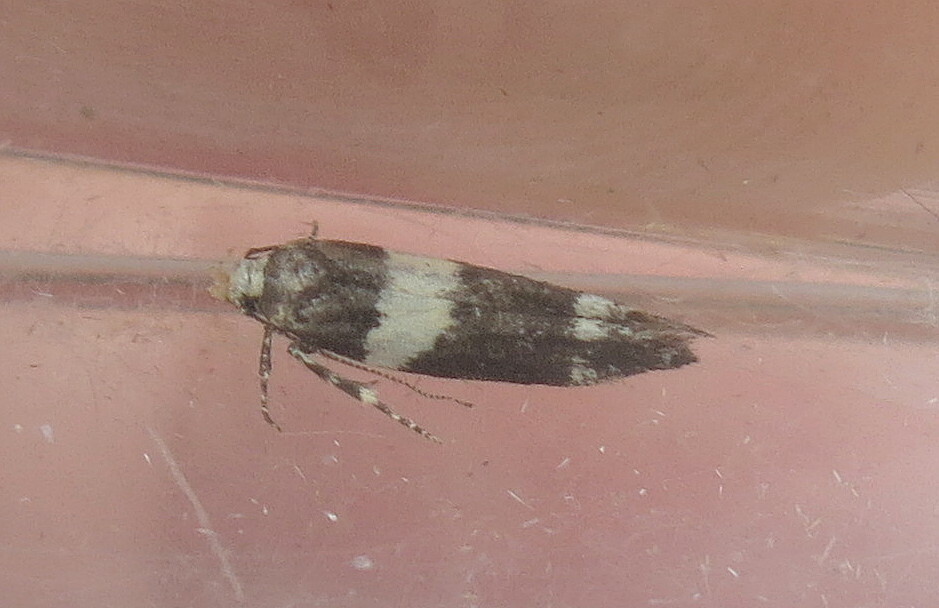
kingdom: Animalia
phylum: Arthropoda
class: Insecta
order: Lepidoptera
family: Gelechiidae
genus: Recurvaria
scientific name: Recurvaria leucatella
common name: White-barred groundling
